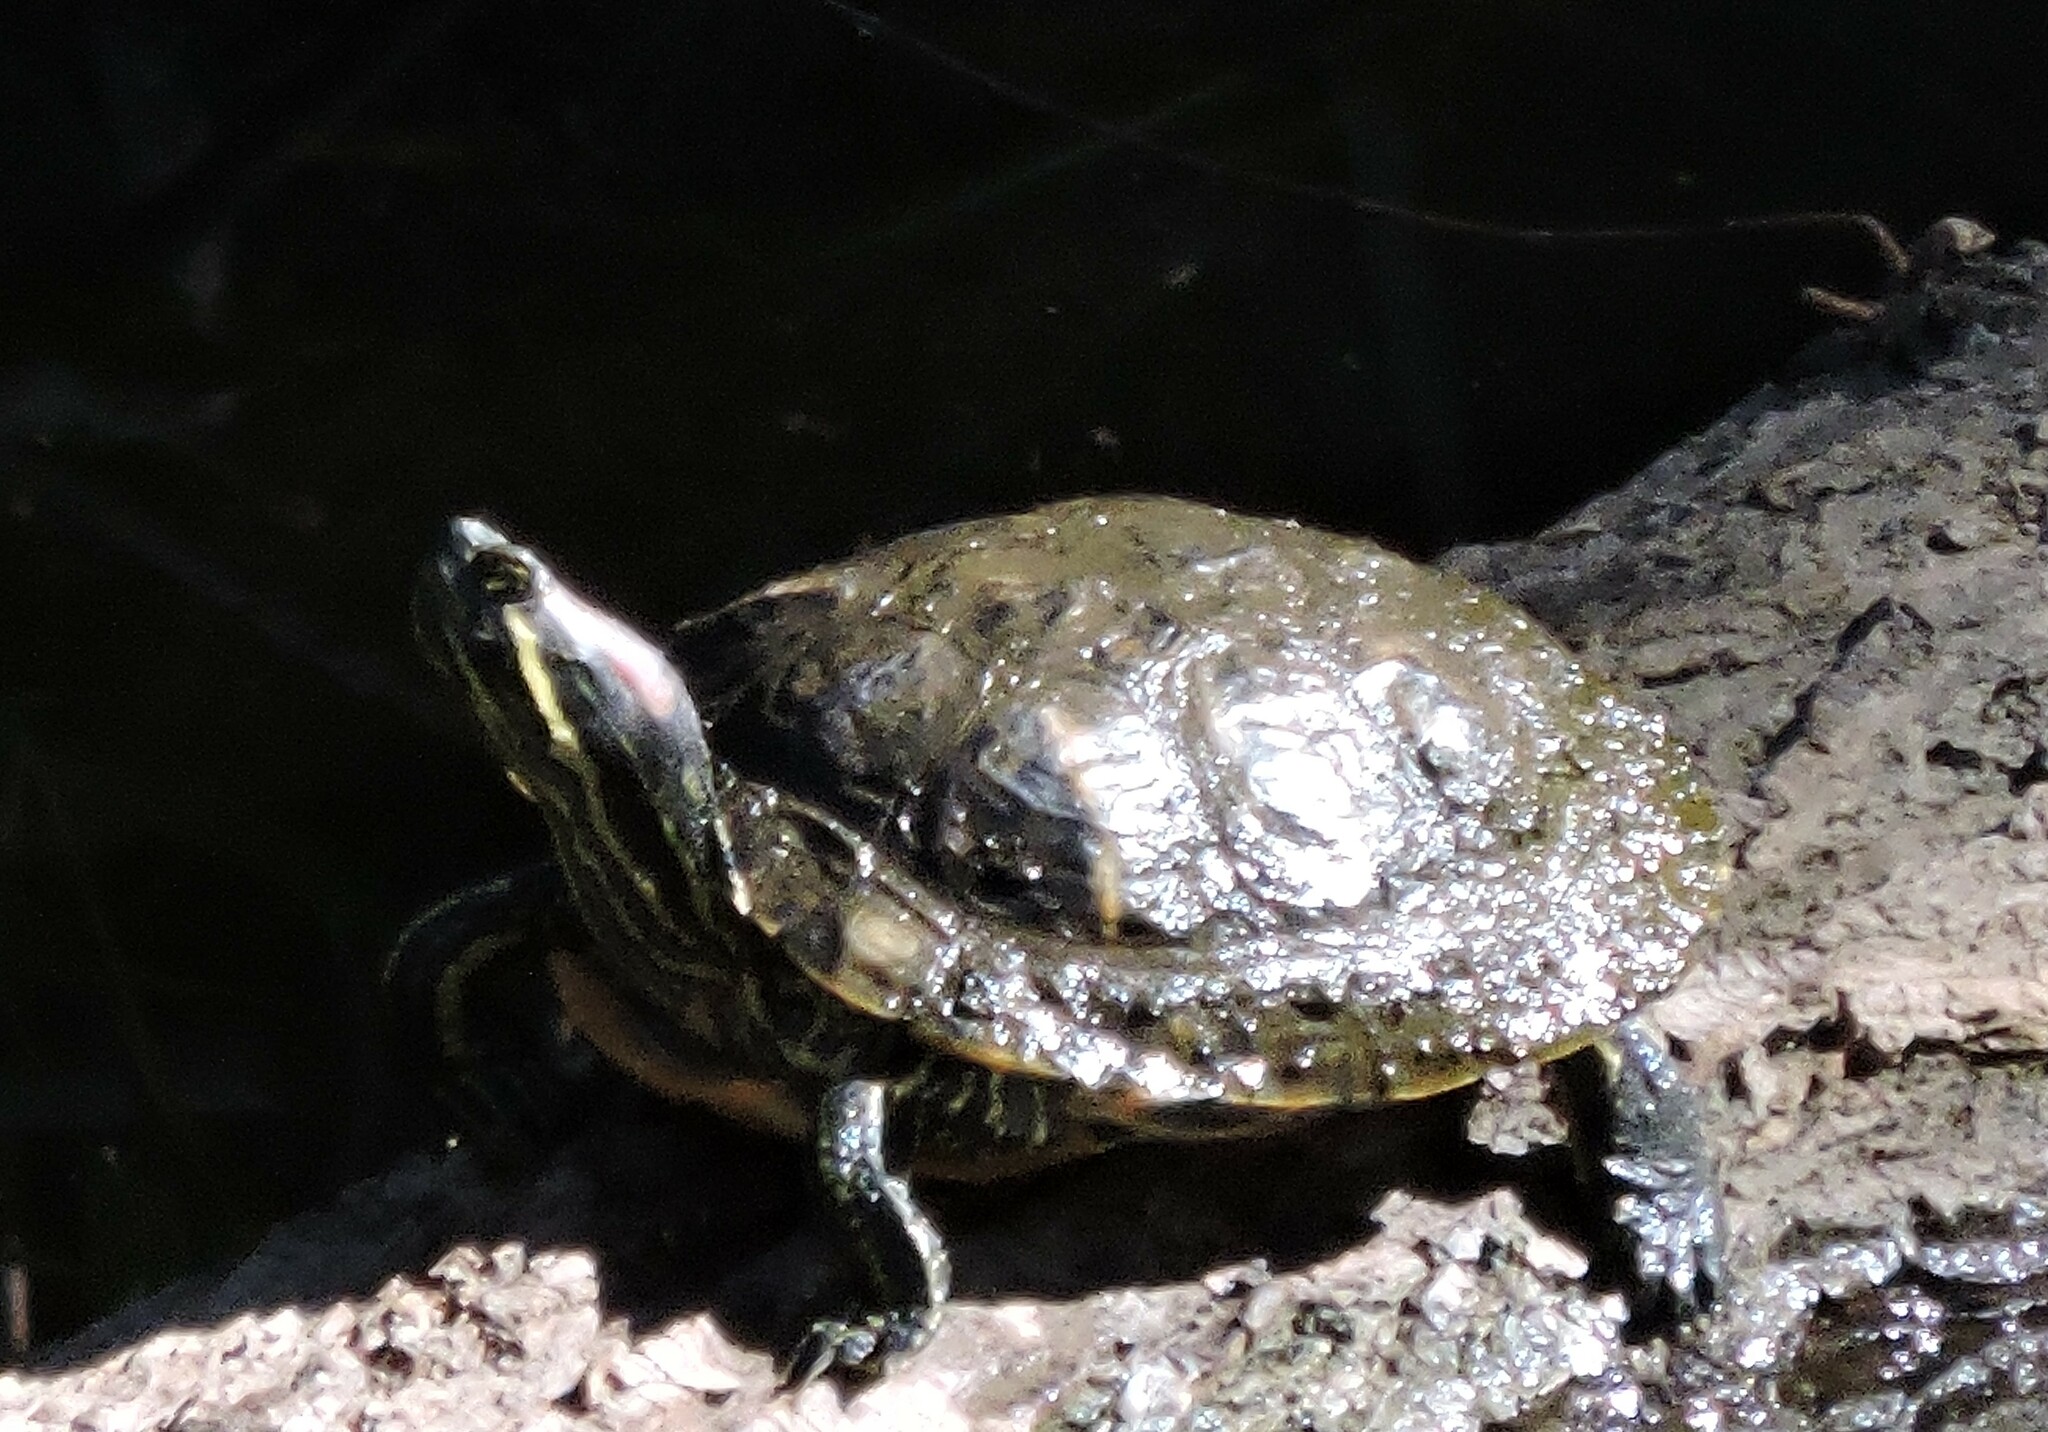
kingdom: Animalia
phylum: Chordata
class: Testudines
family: Emydidae
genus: Trachemys
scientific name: Trachemys scripta
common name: Slider
